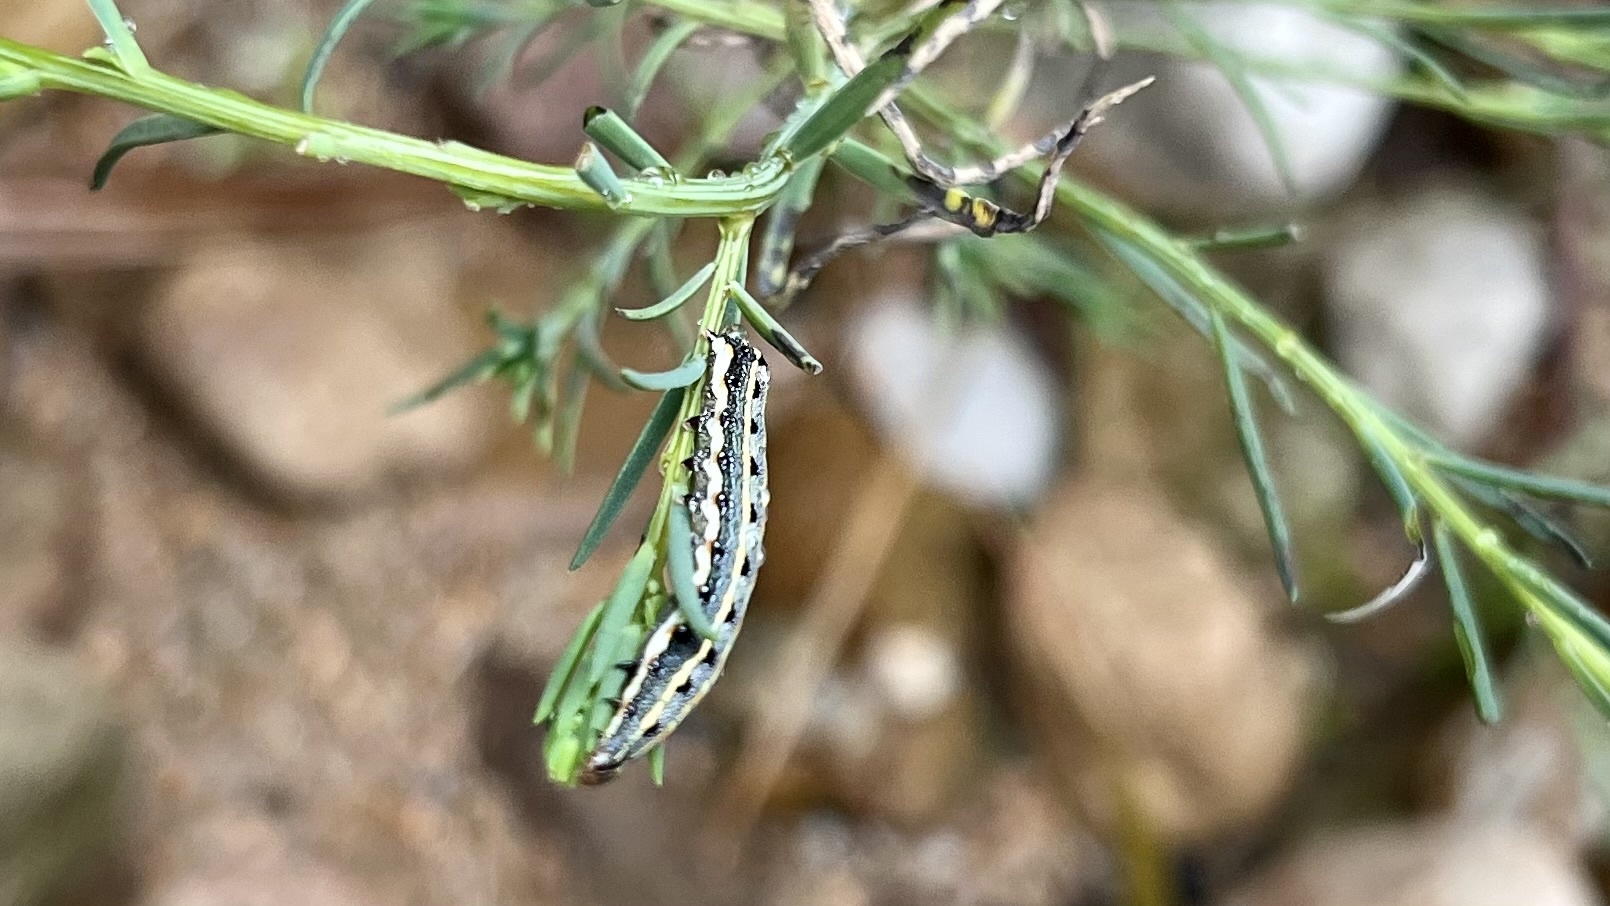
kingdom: Animalia
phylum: Arthropoda
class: Insecta
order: Lepidoptera
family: Noctuidae
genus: Spodoptera
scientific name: Spodoptera picta
